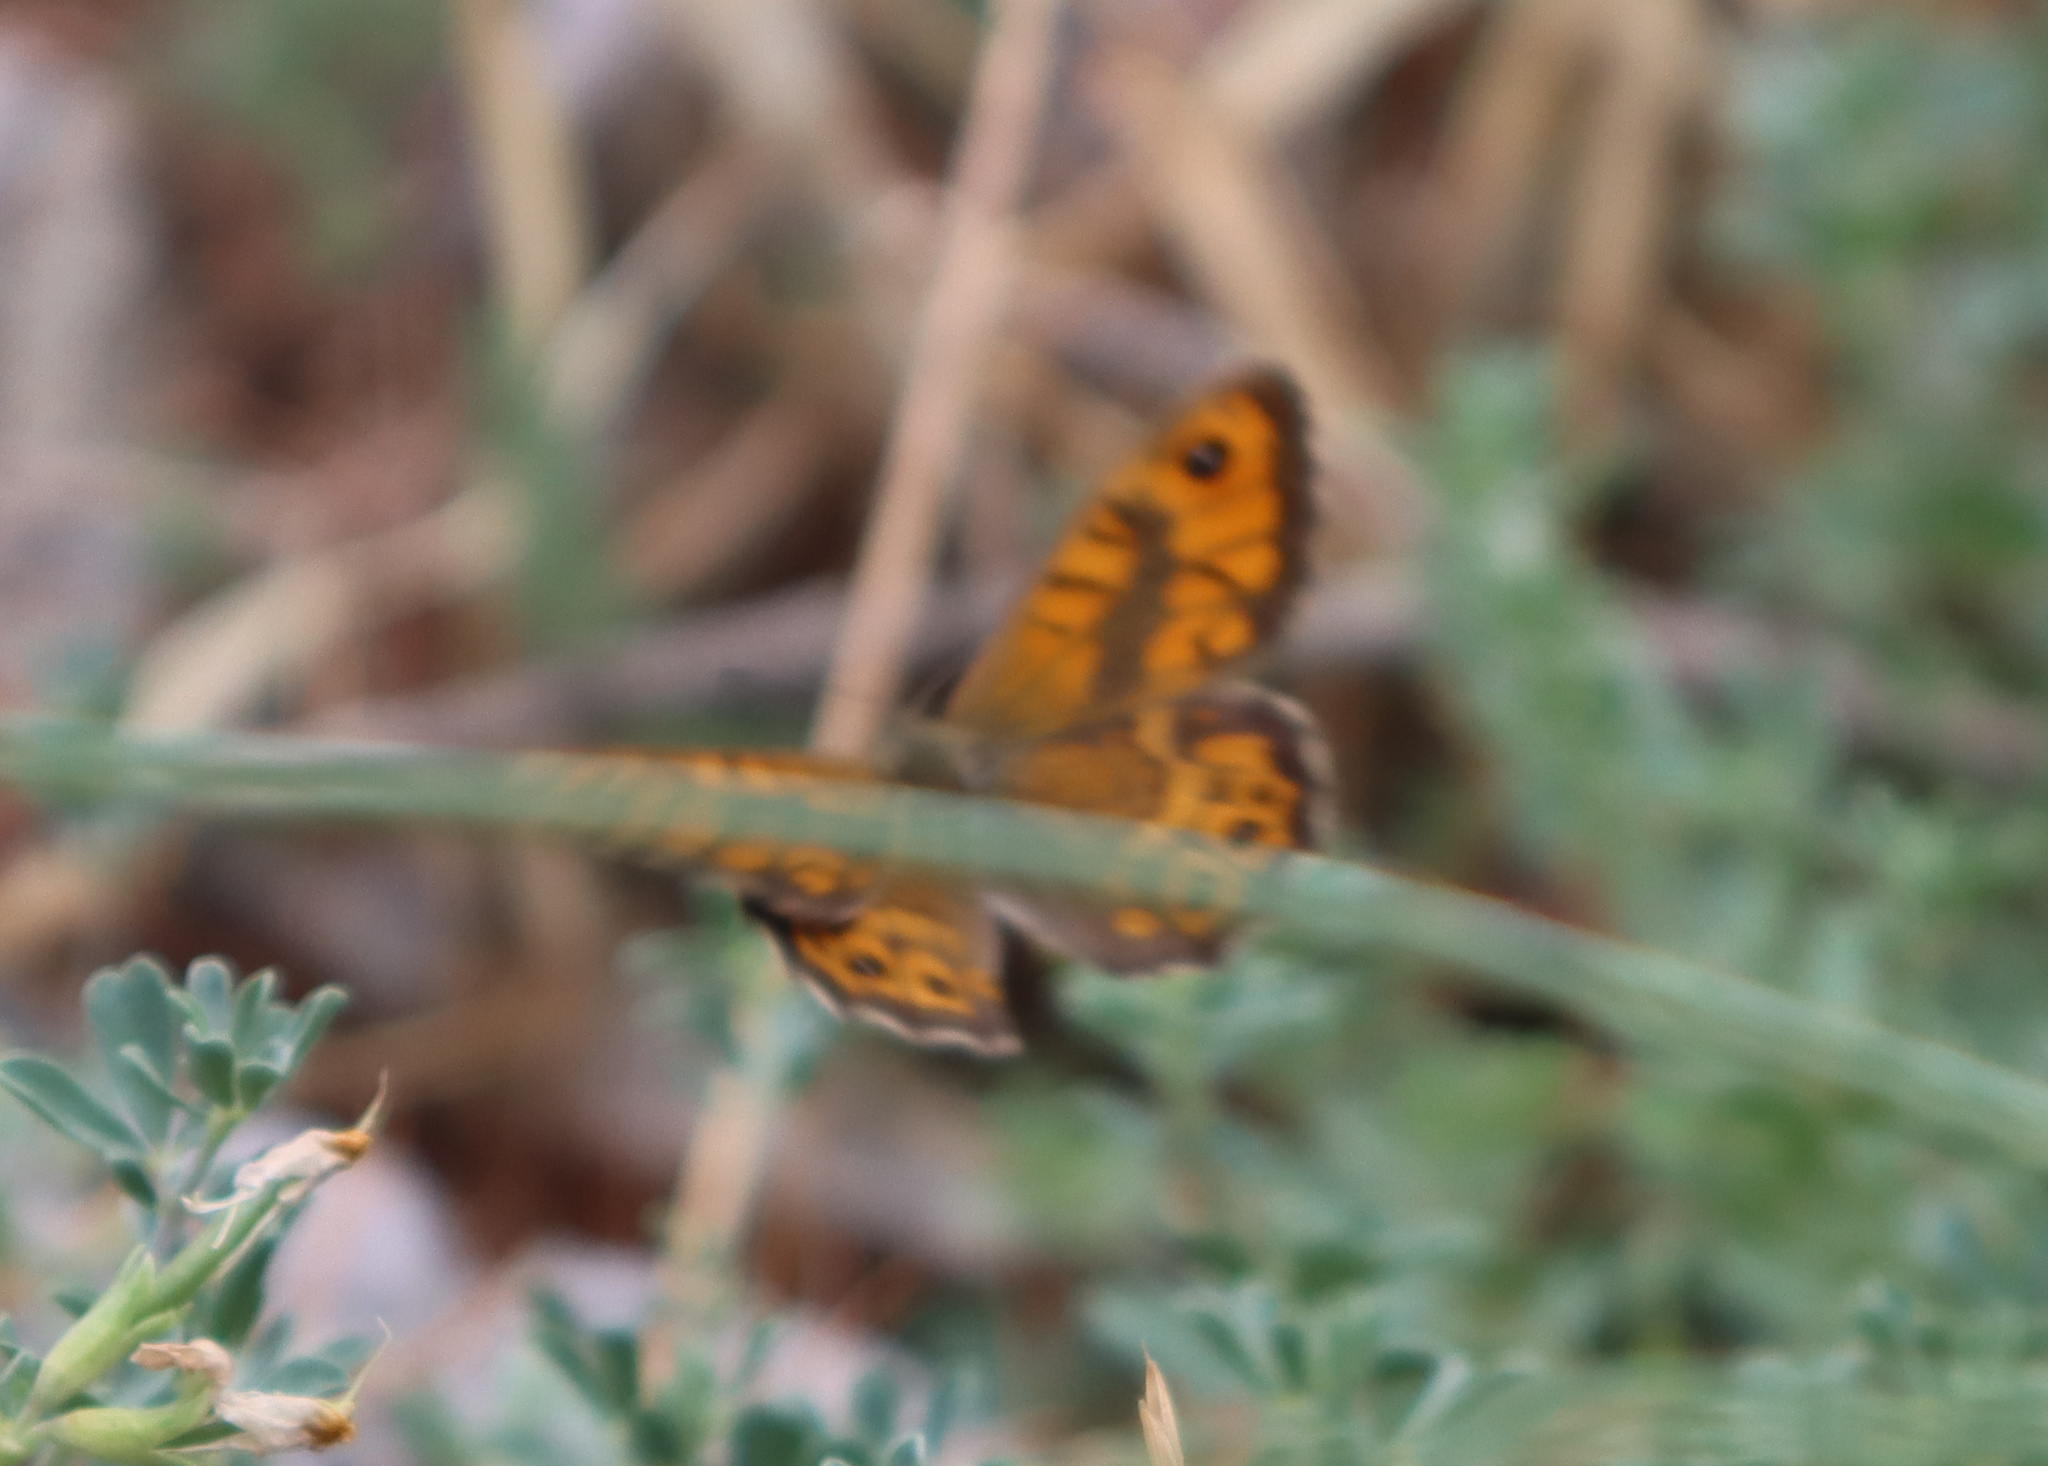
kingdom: Animalia
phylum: Arthropoda
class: Insecta
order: Lepidoptera
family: Nymphalidae
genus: Pararge
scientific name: Pararge Lasiommata megera
